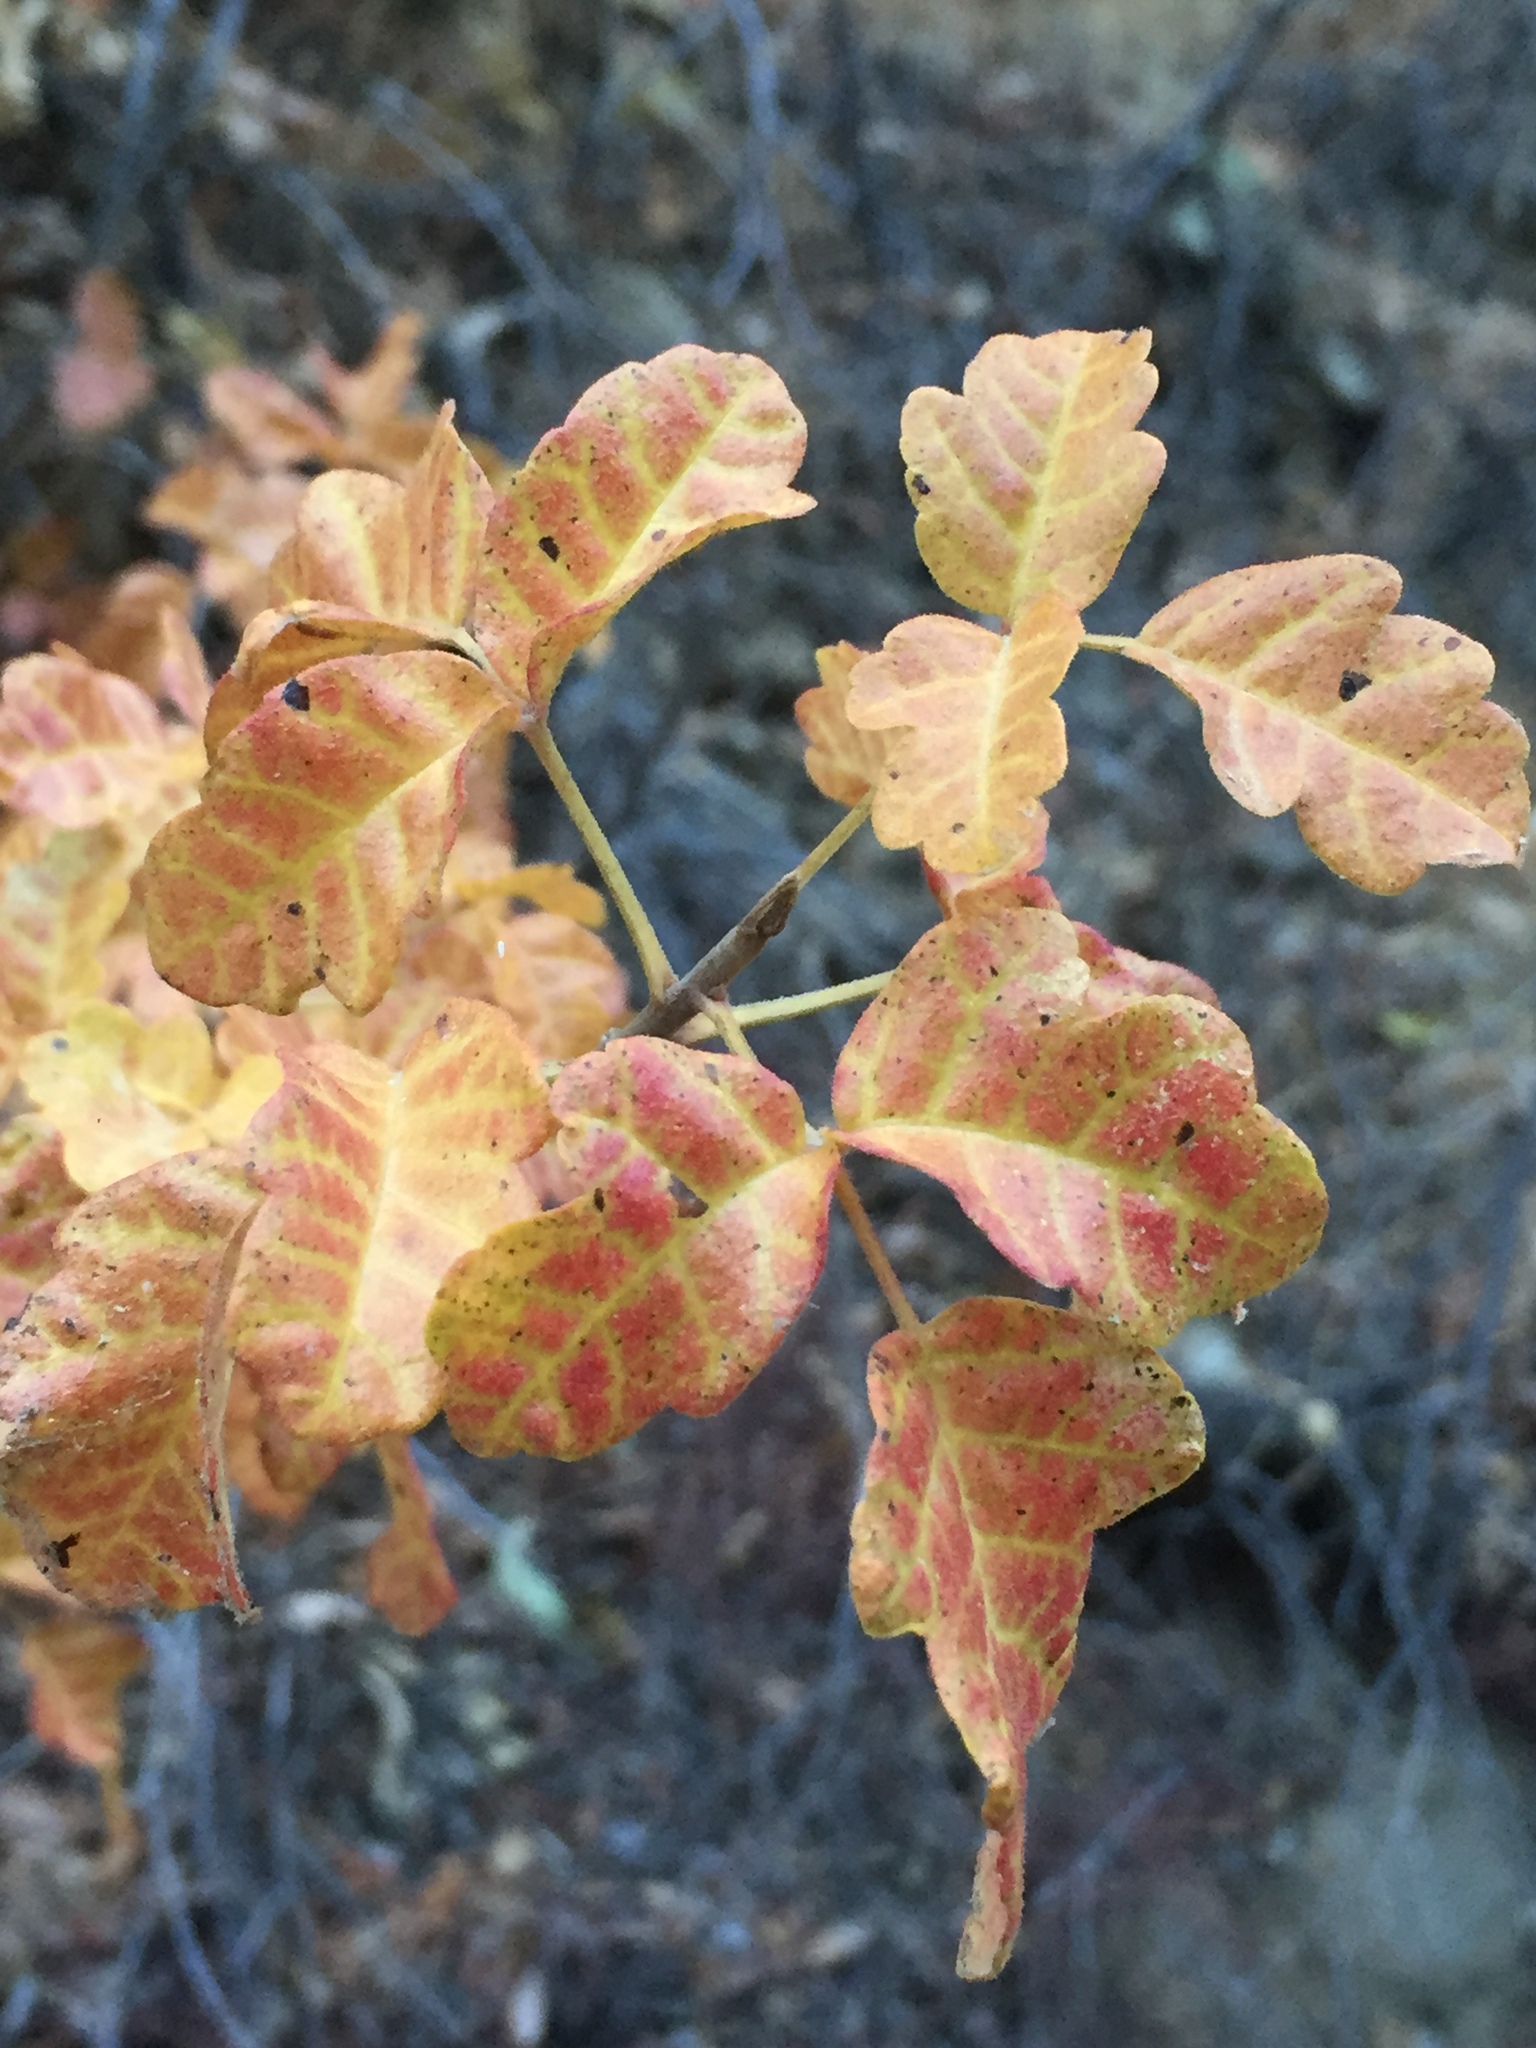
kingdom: Plantae
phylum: Tracheophyta
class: Magnoliopsida
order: Sapindales
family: Anacardiaceae
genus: Toxicodendron
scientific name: Toxicodendron diversilobum
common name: Pacific poison-oak
